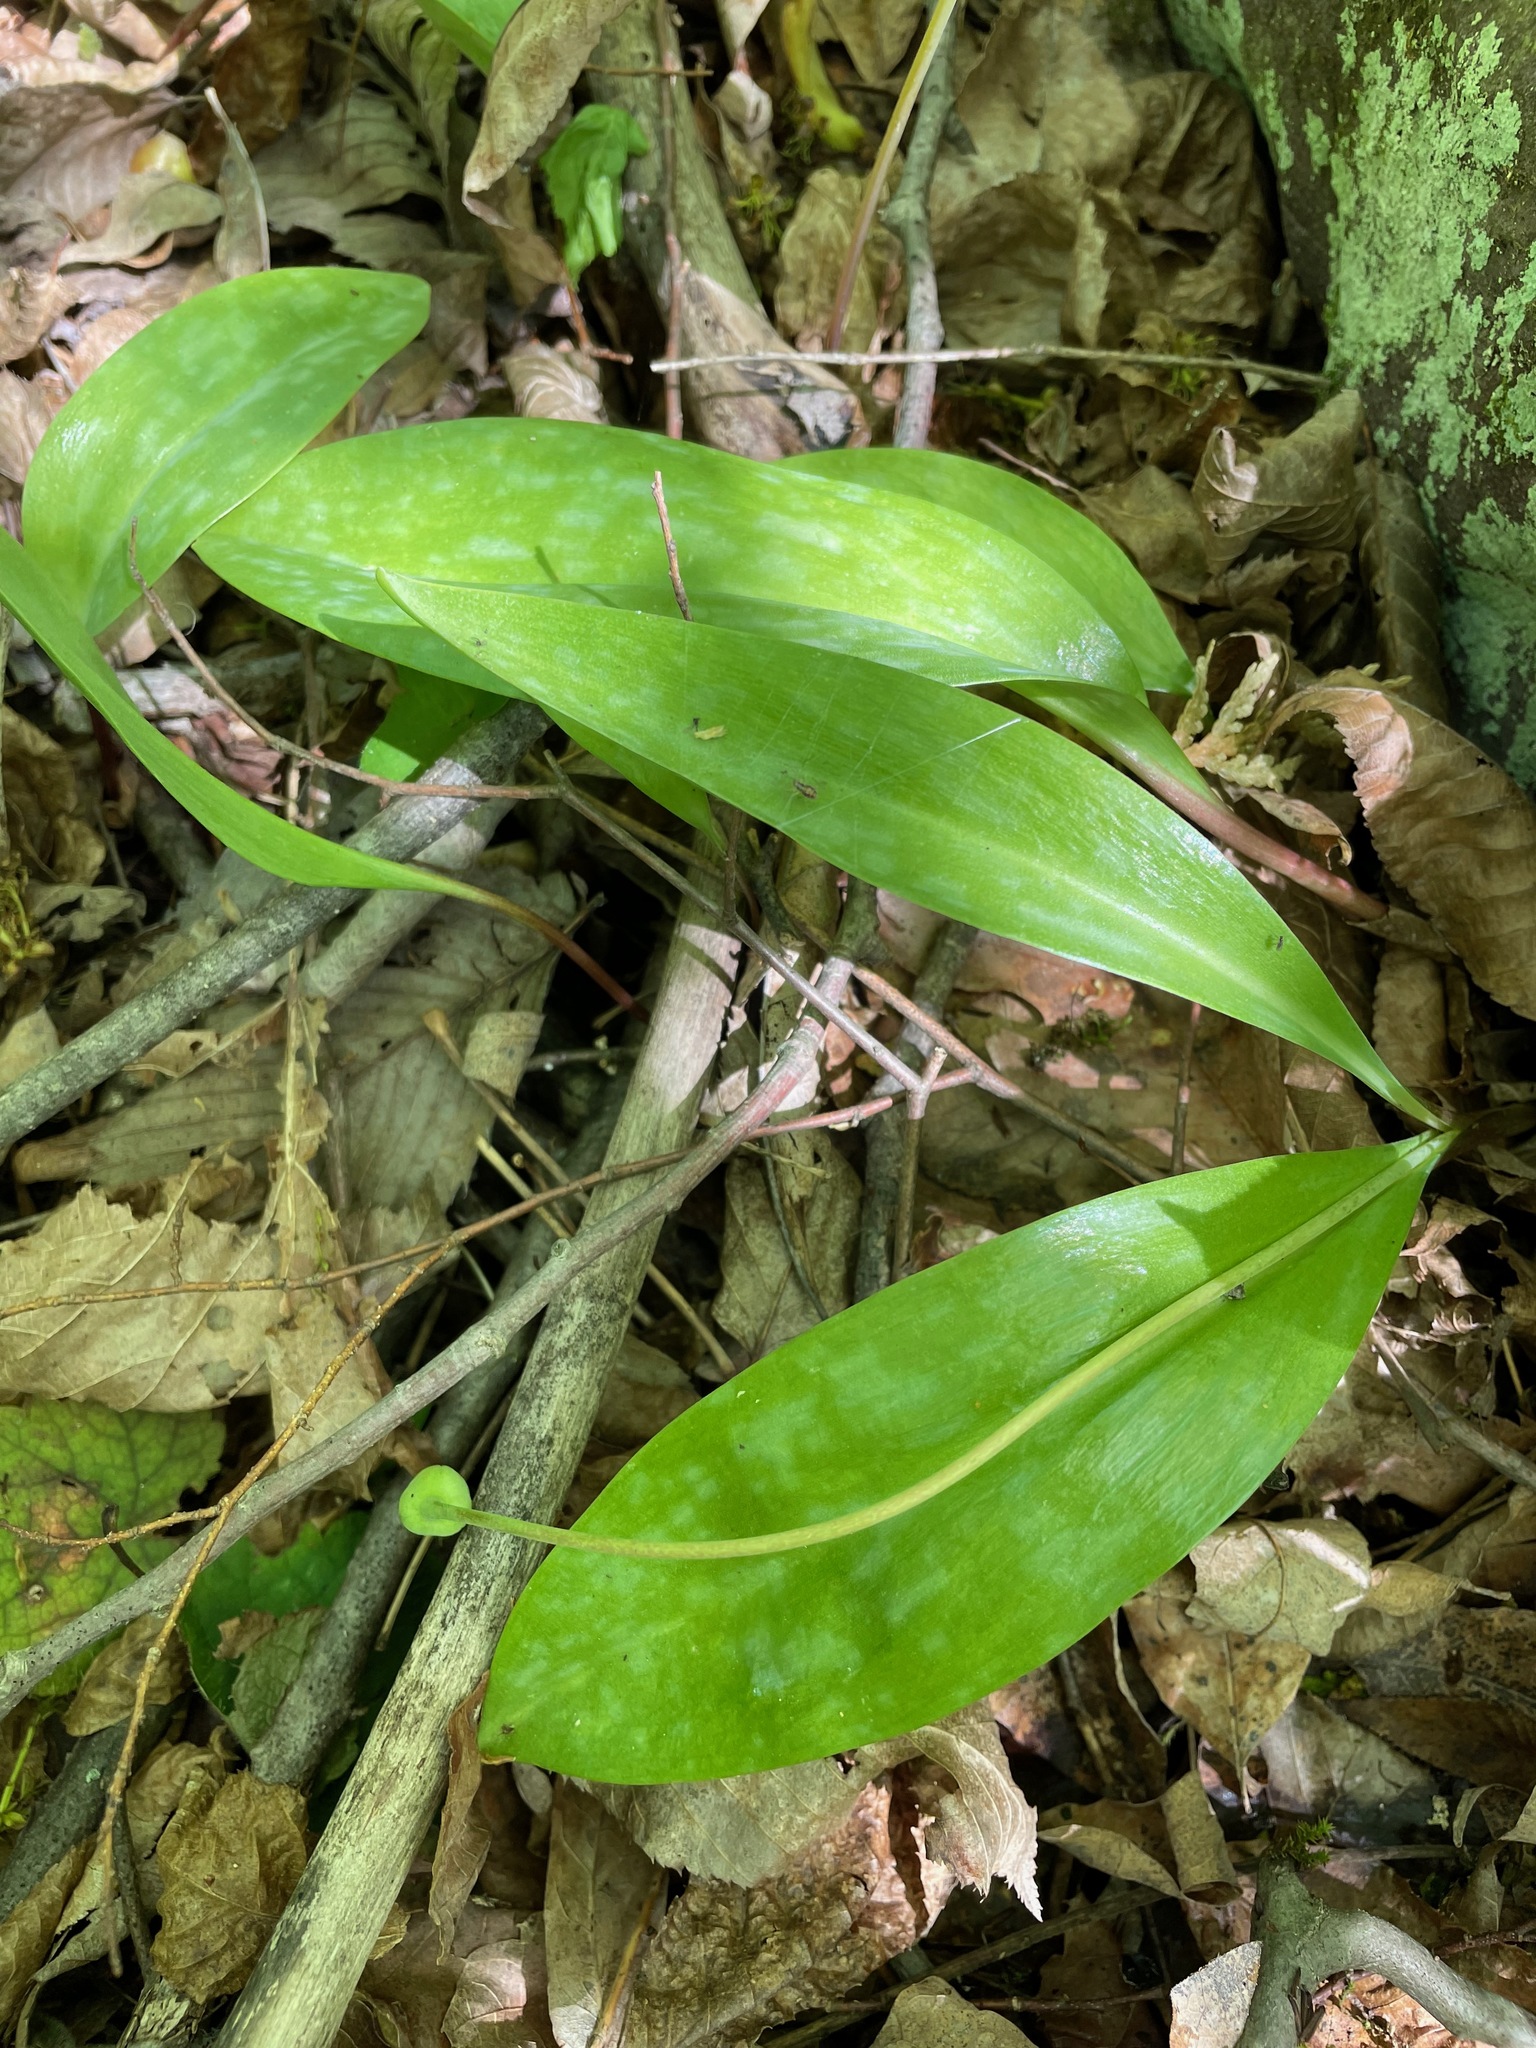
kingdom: Plantae
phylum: Tracheophyta
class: Liliopsida
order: Liliales
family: Liliaceae
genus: Erythronium
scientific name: Erythronium americanum
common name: Yellow adder's-tongue
